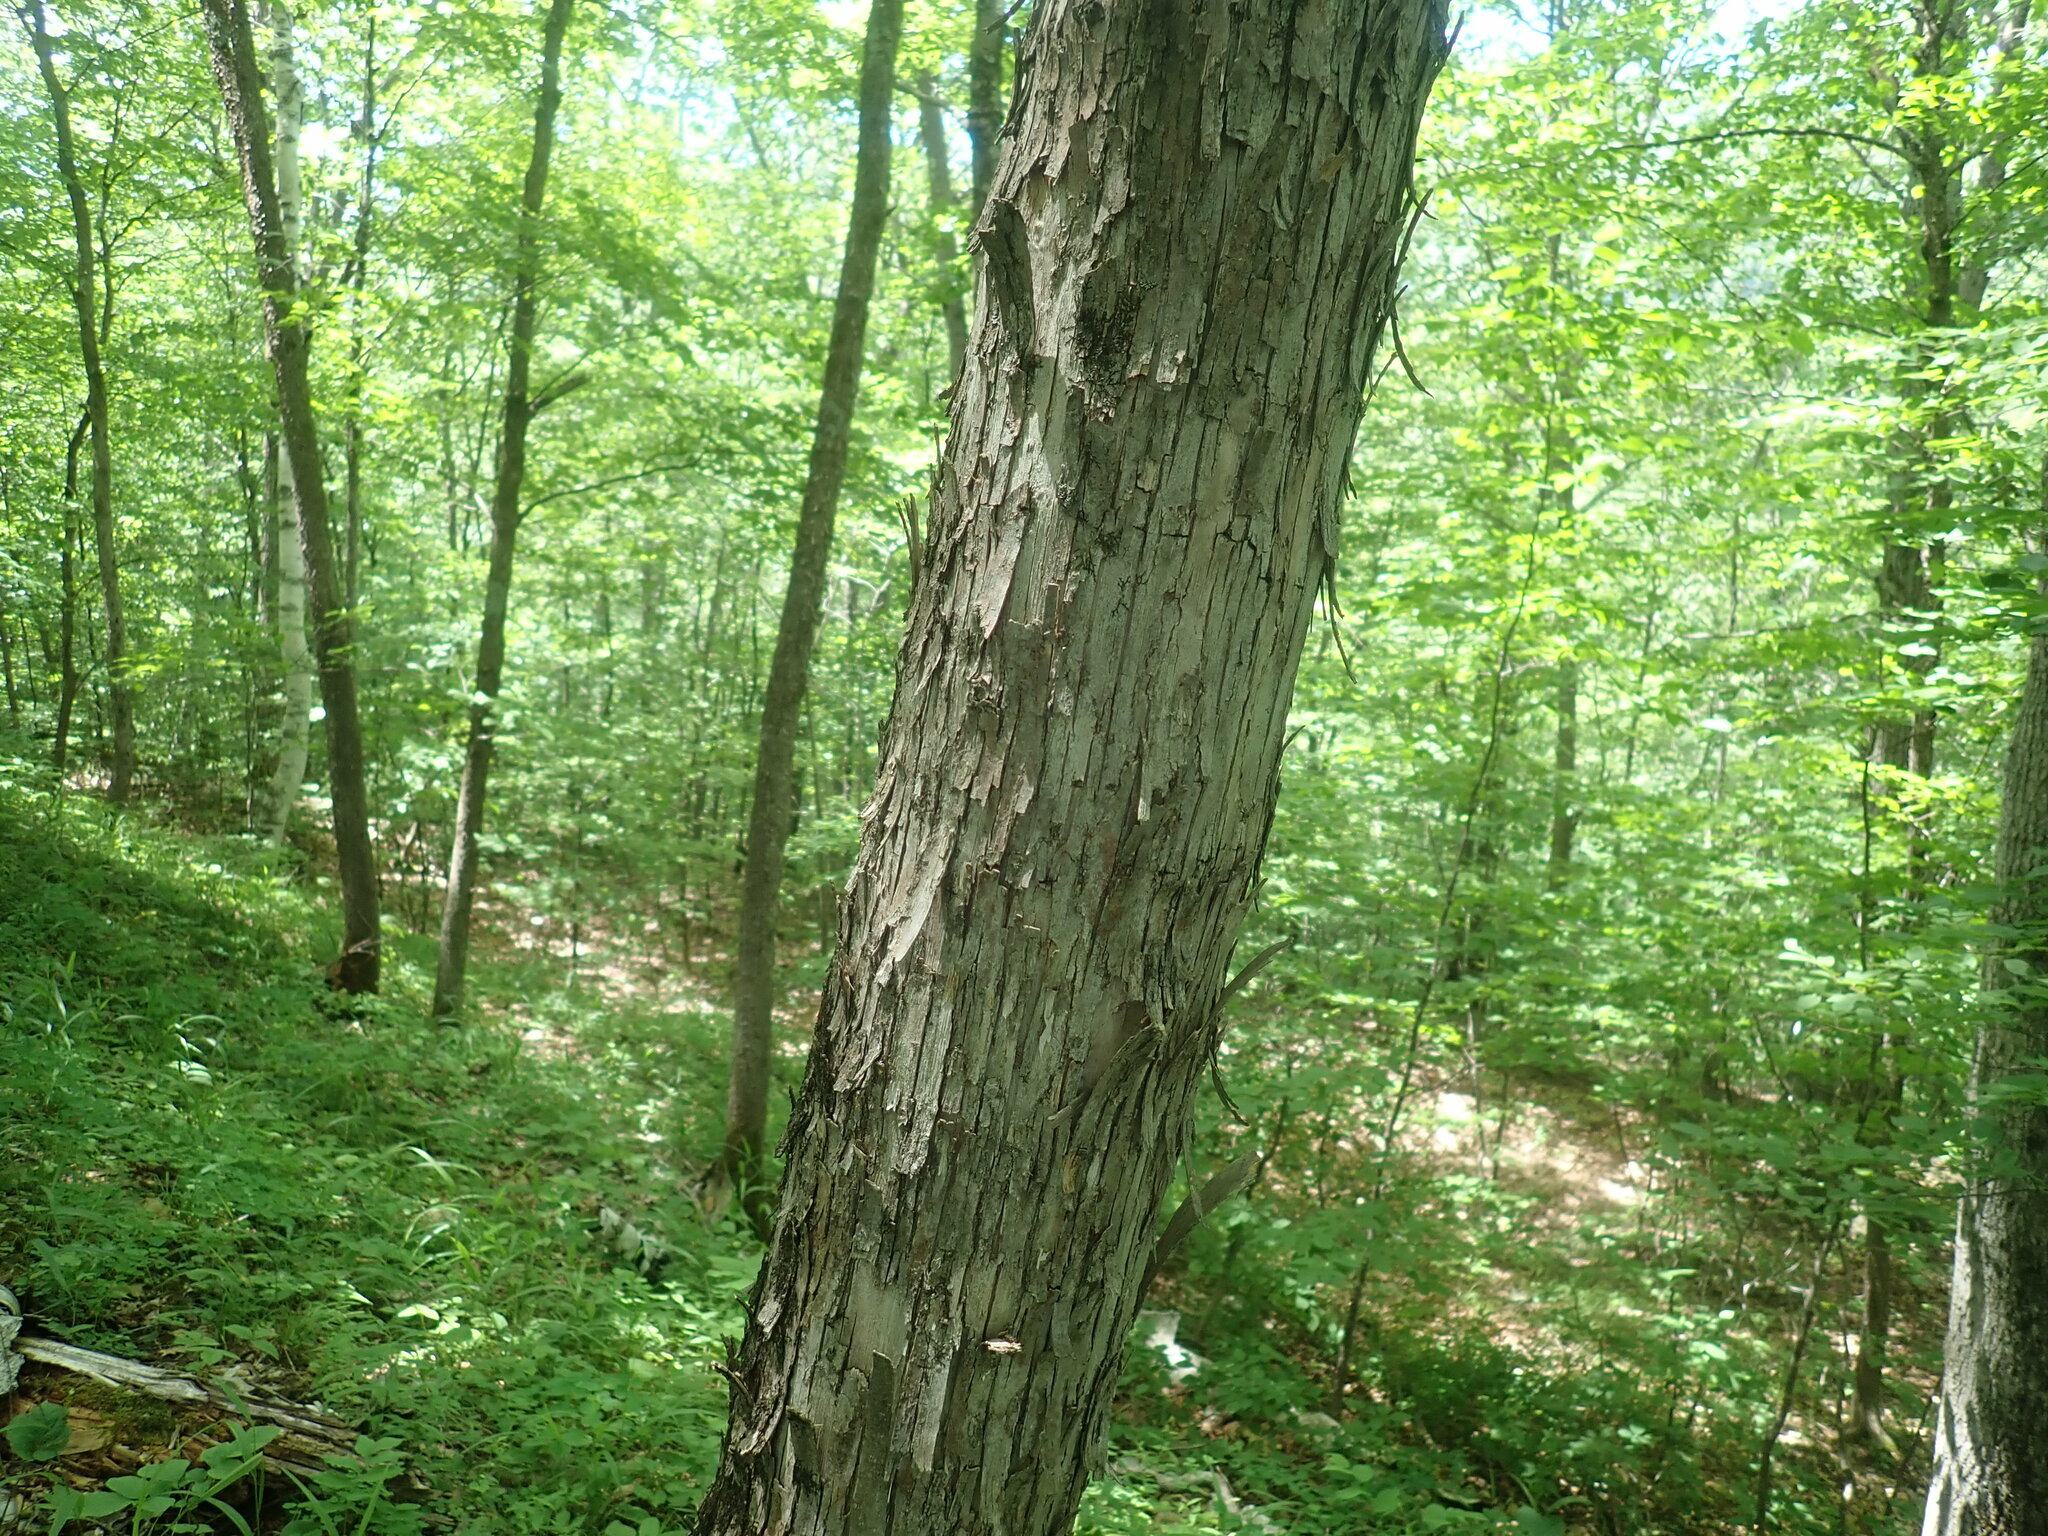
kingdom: Plantae
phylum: Tracheophyta
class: Magnoliopsida
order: Fagales
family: Betulaceae
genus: Ostrya
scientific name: Ostrya virginiana
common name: Ironwood
